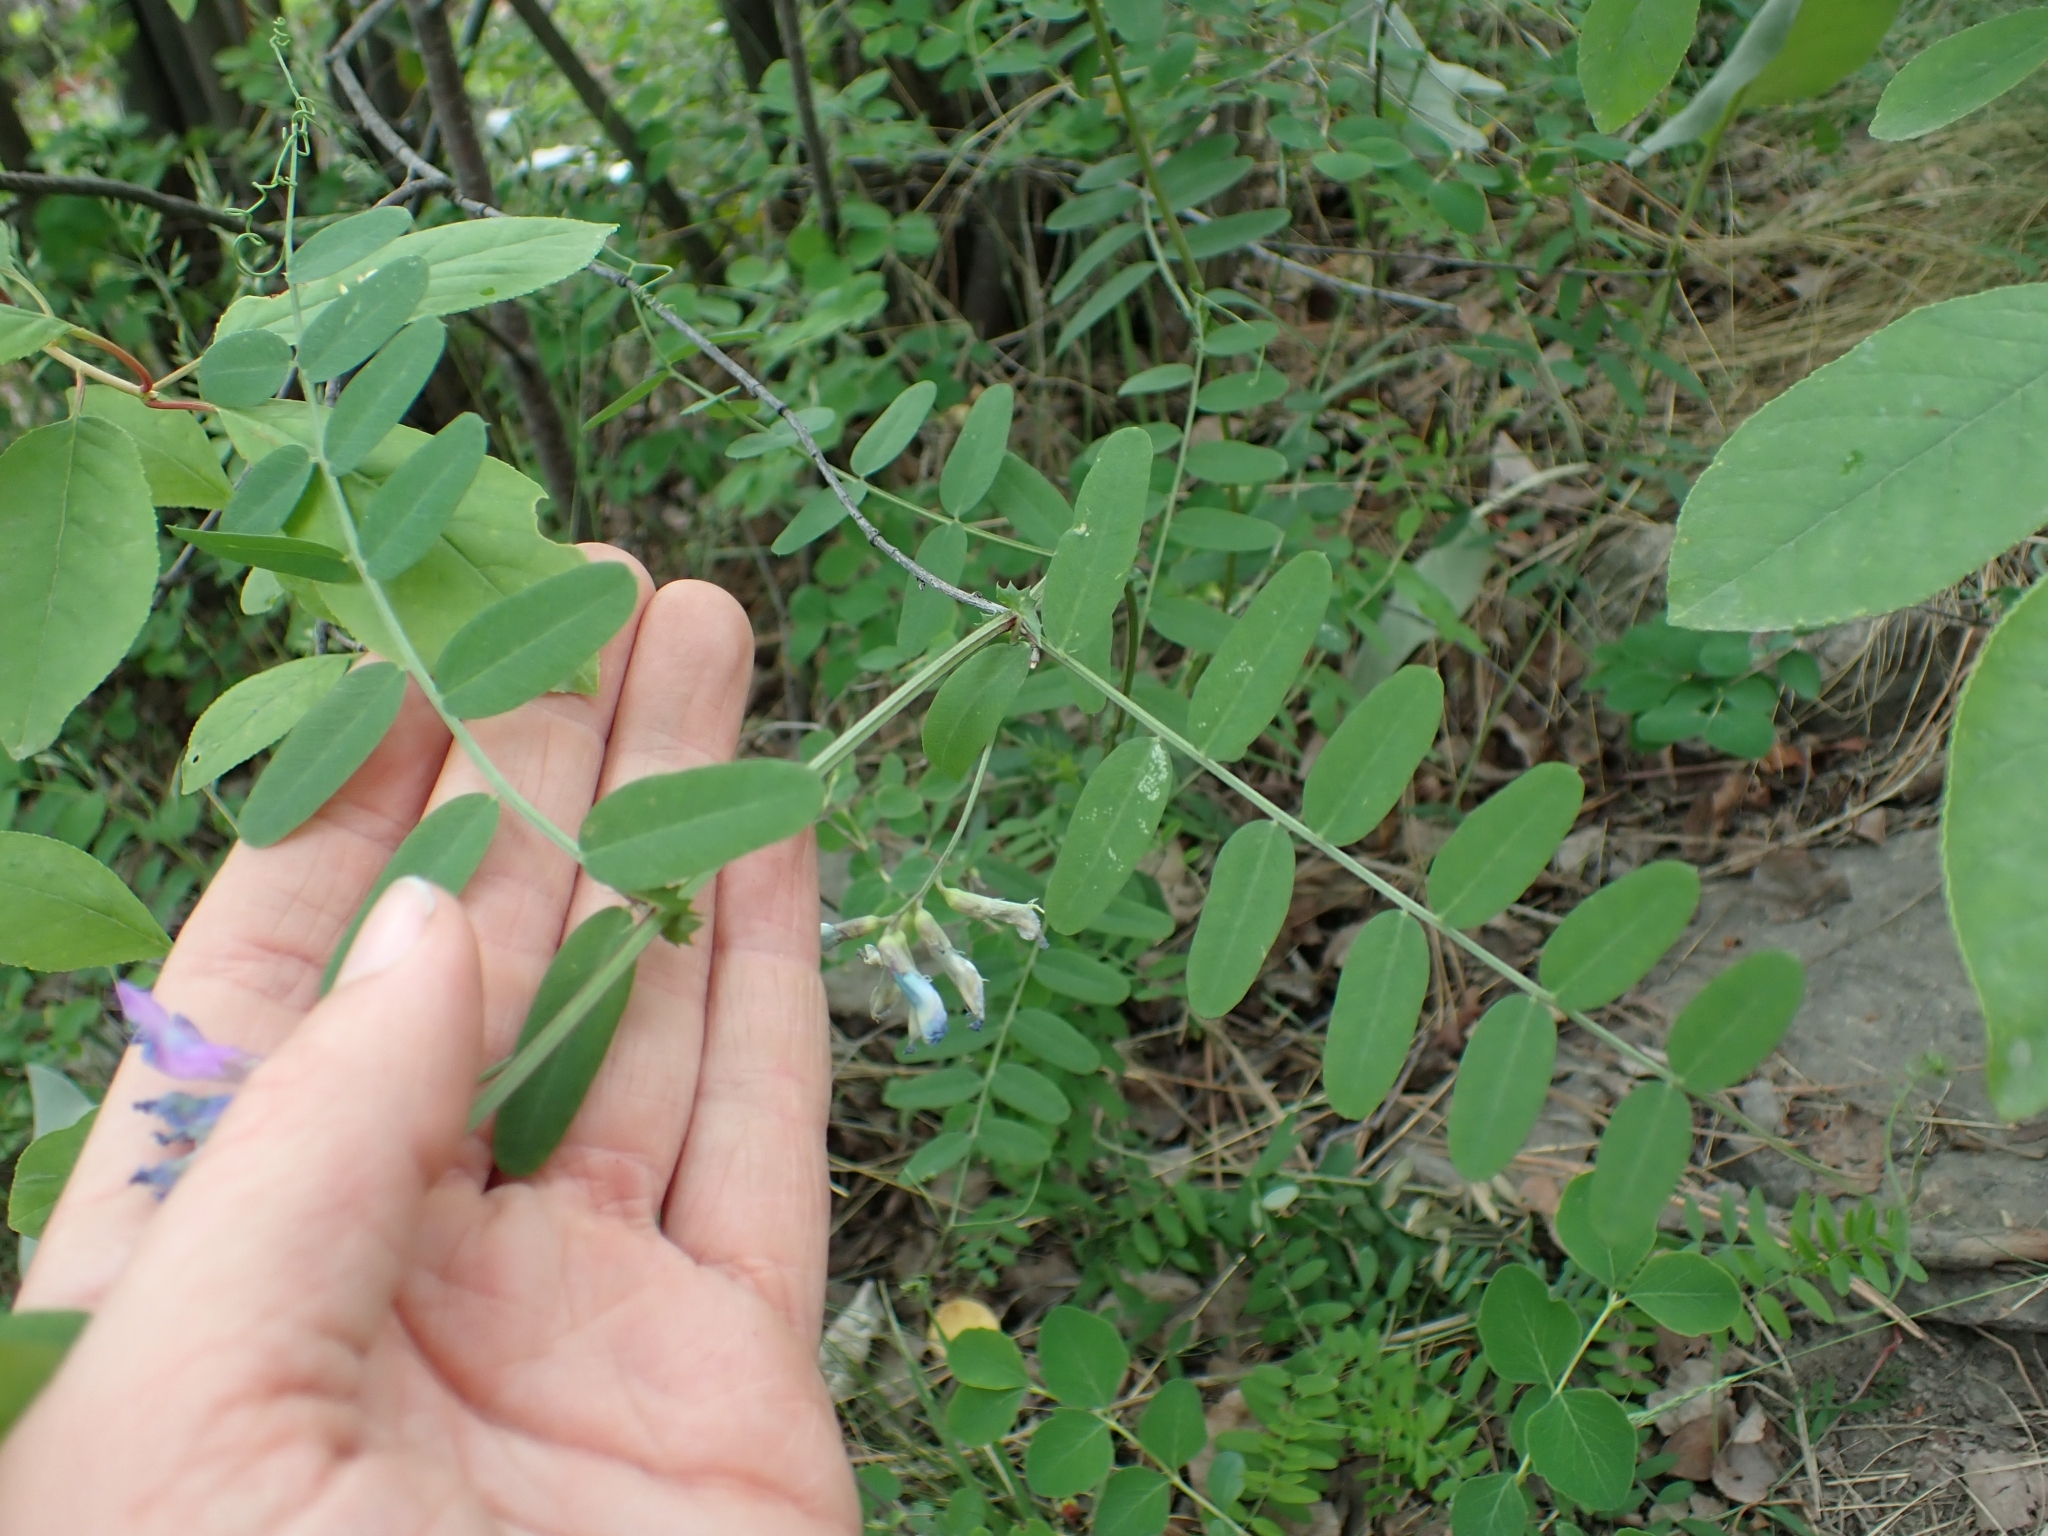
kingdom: Plantae
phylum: Tracheophyta
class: Magnoliopsida
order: Fabales
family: Fabaceae
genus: Vicia
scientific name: Vicia americana
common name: American vetch
